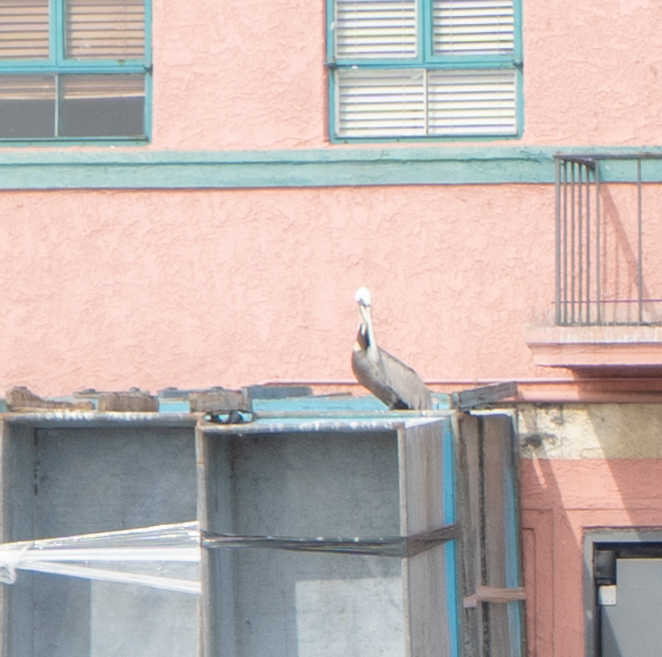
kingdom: Animalia
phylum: Chordata
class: Aves
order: Pelecaniformes
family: Pelecanidae
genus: Pelecanus
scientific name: Pelecanus occidentalis
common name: Brown pelican
